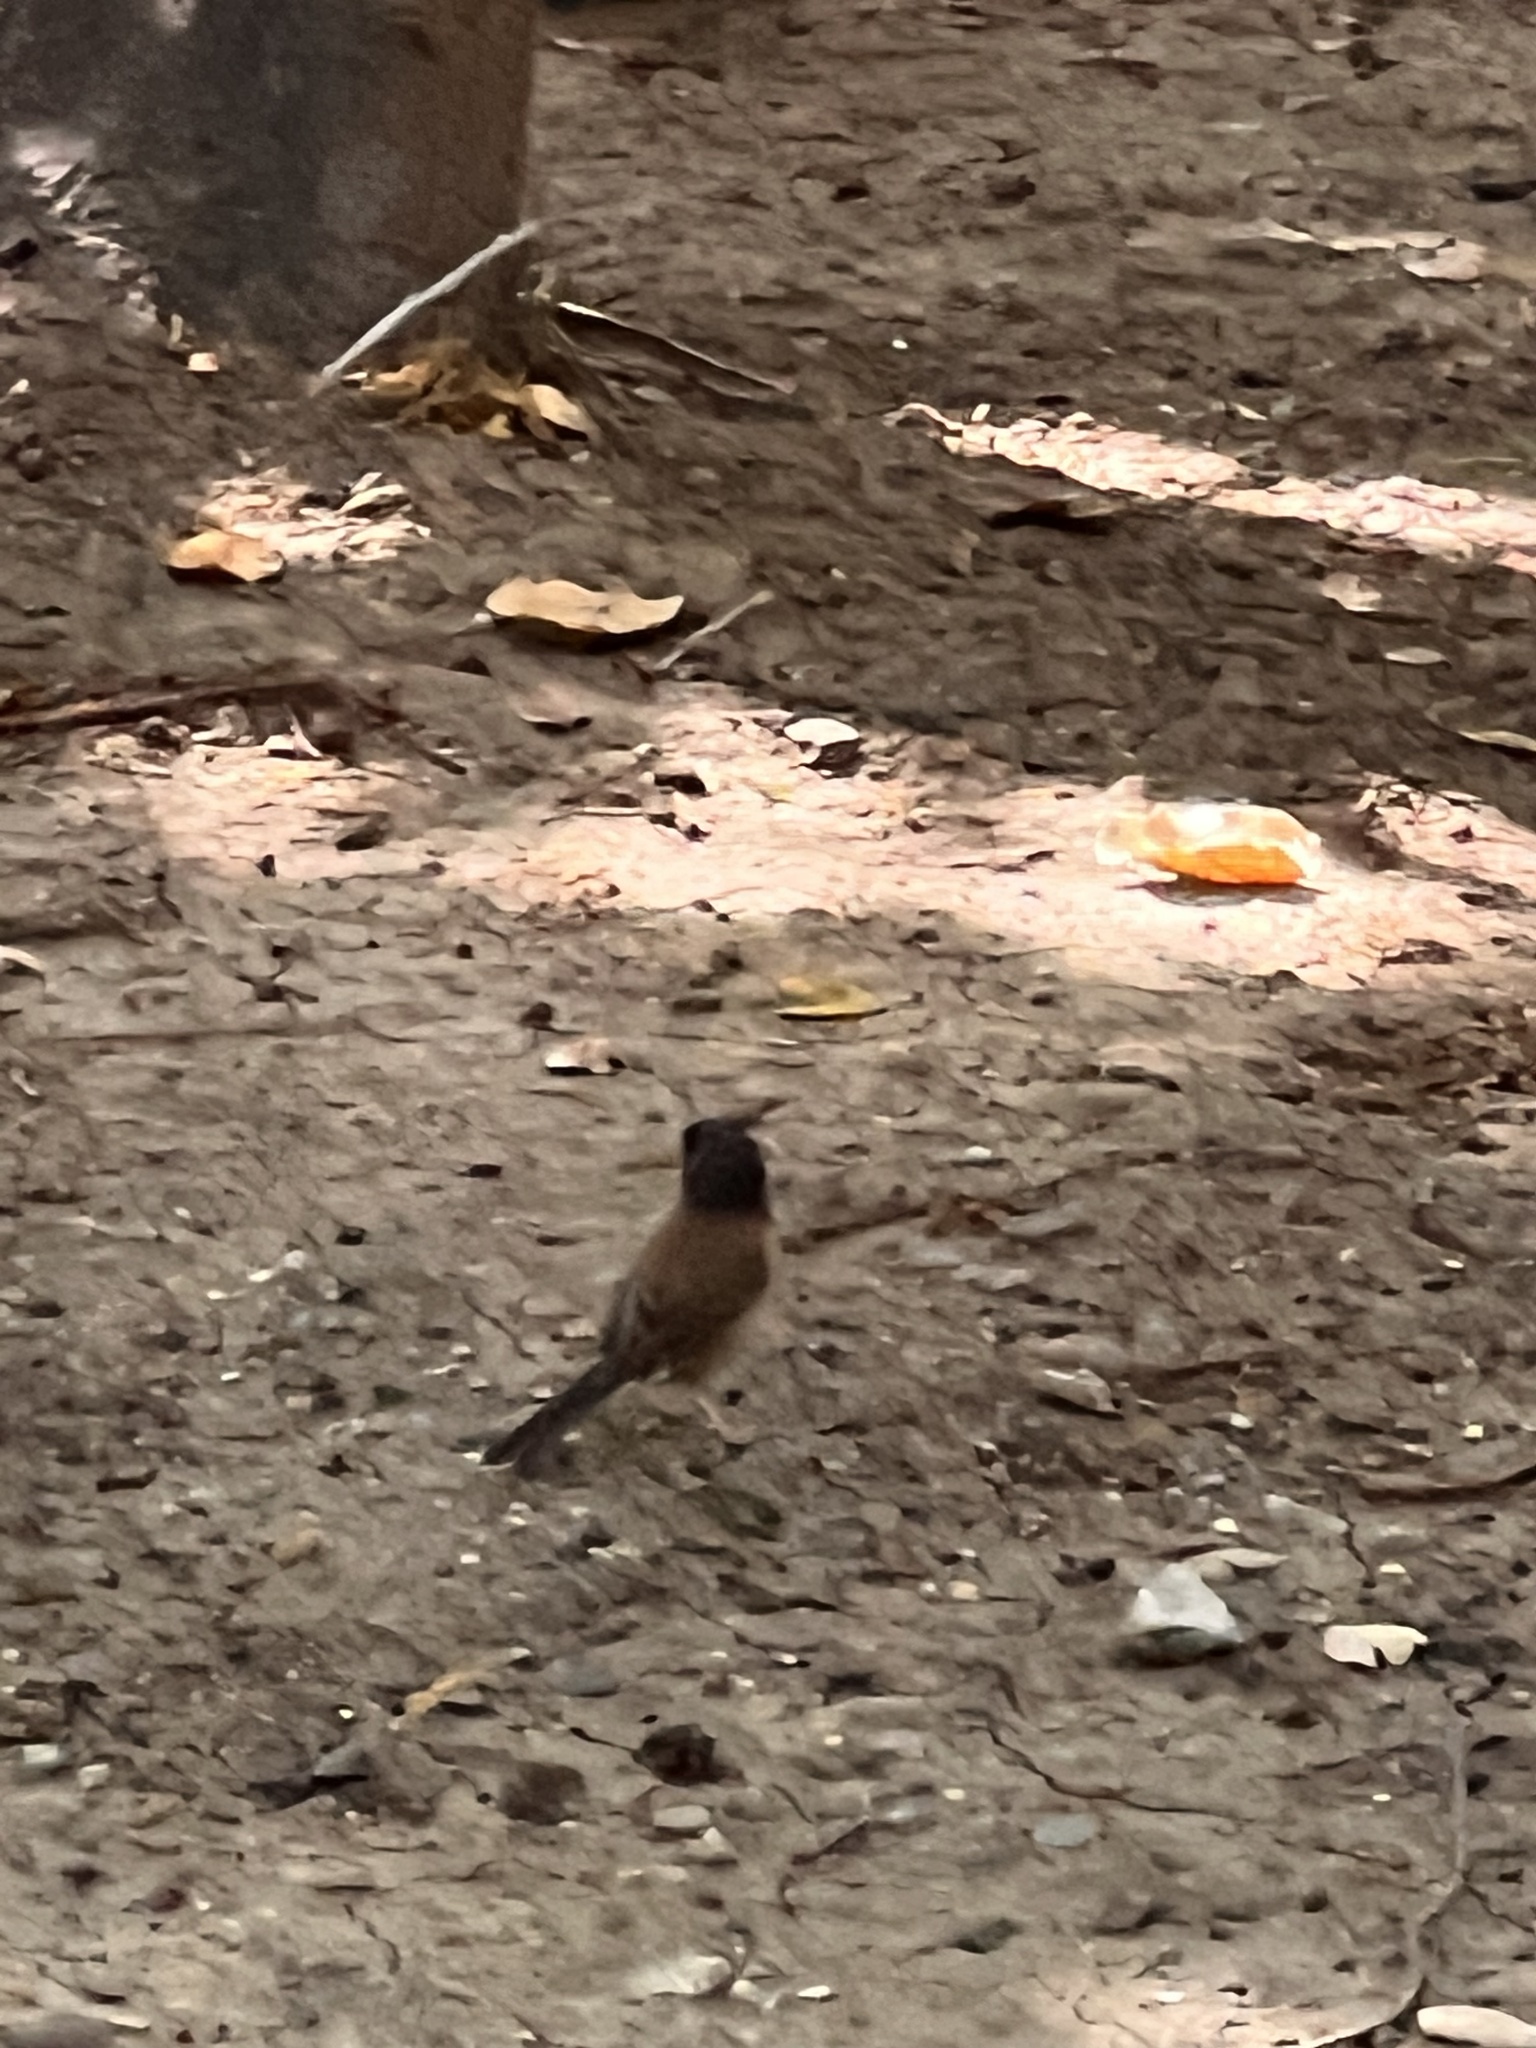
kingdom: Animalia
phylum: Chordata
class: Aves
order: Passeriformes
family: Passerellidae
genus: Junco
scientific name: Junco hyemalis
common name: Dark-eyed junco
